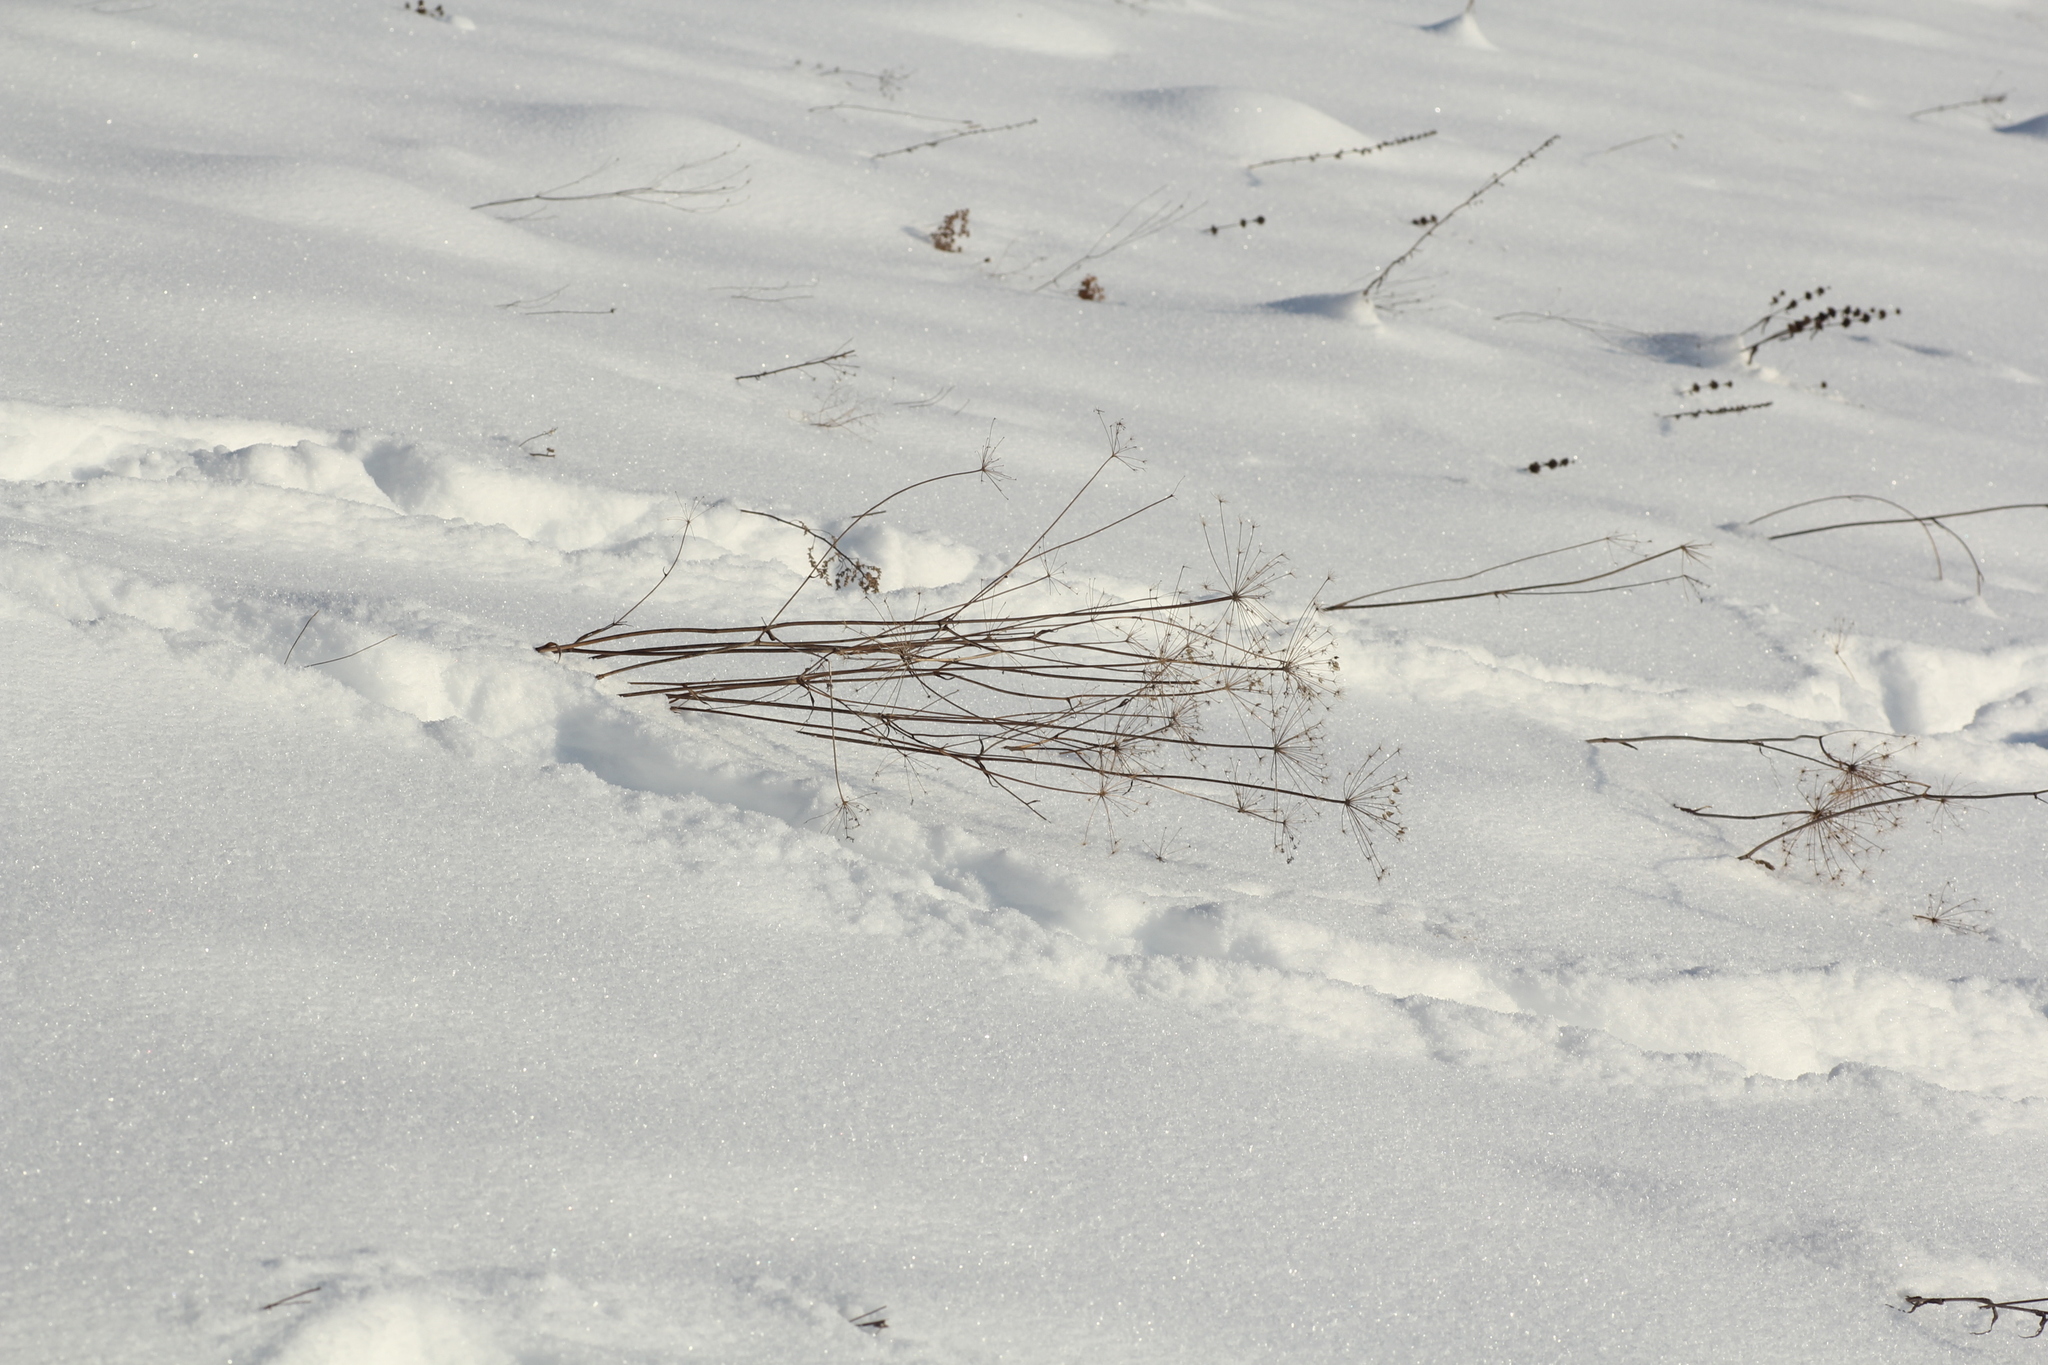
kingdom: Plantae
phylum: Tracheophyta
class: Magnoliopsida
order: Apiales
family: Apiaceae
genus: Peucedanum
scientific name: Peucedanum morisonii
